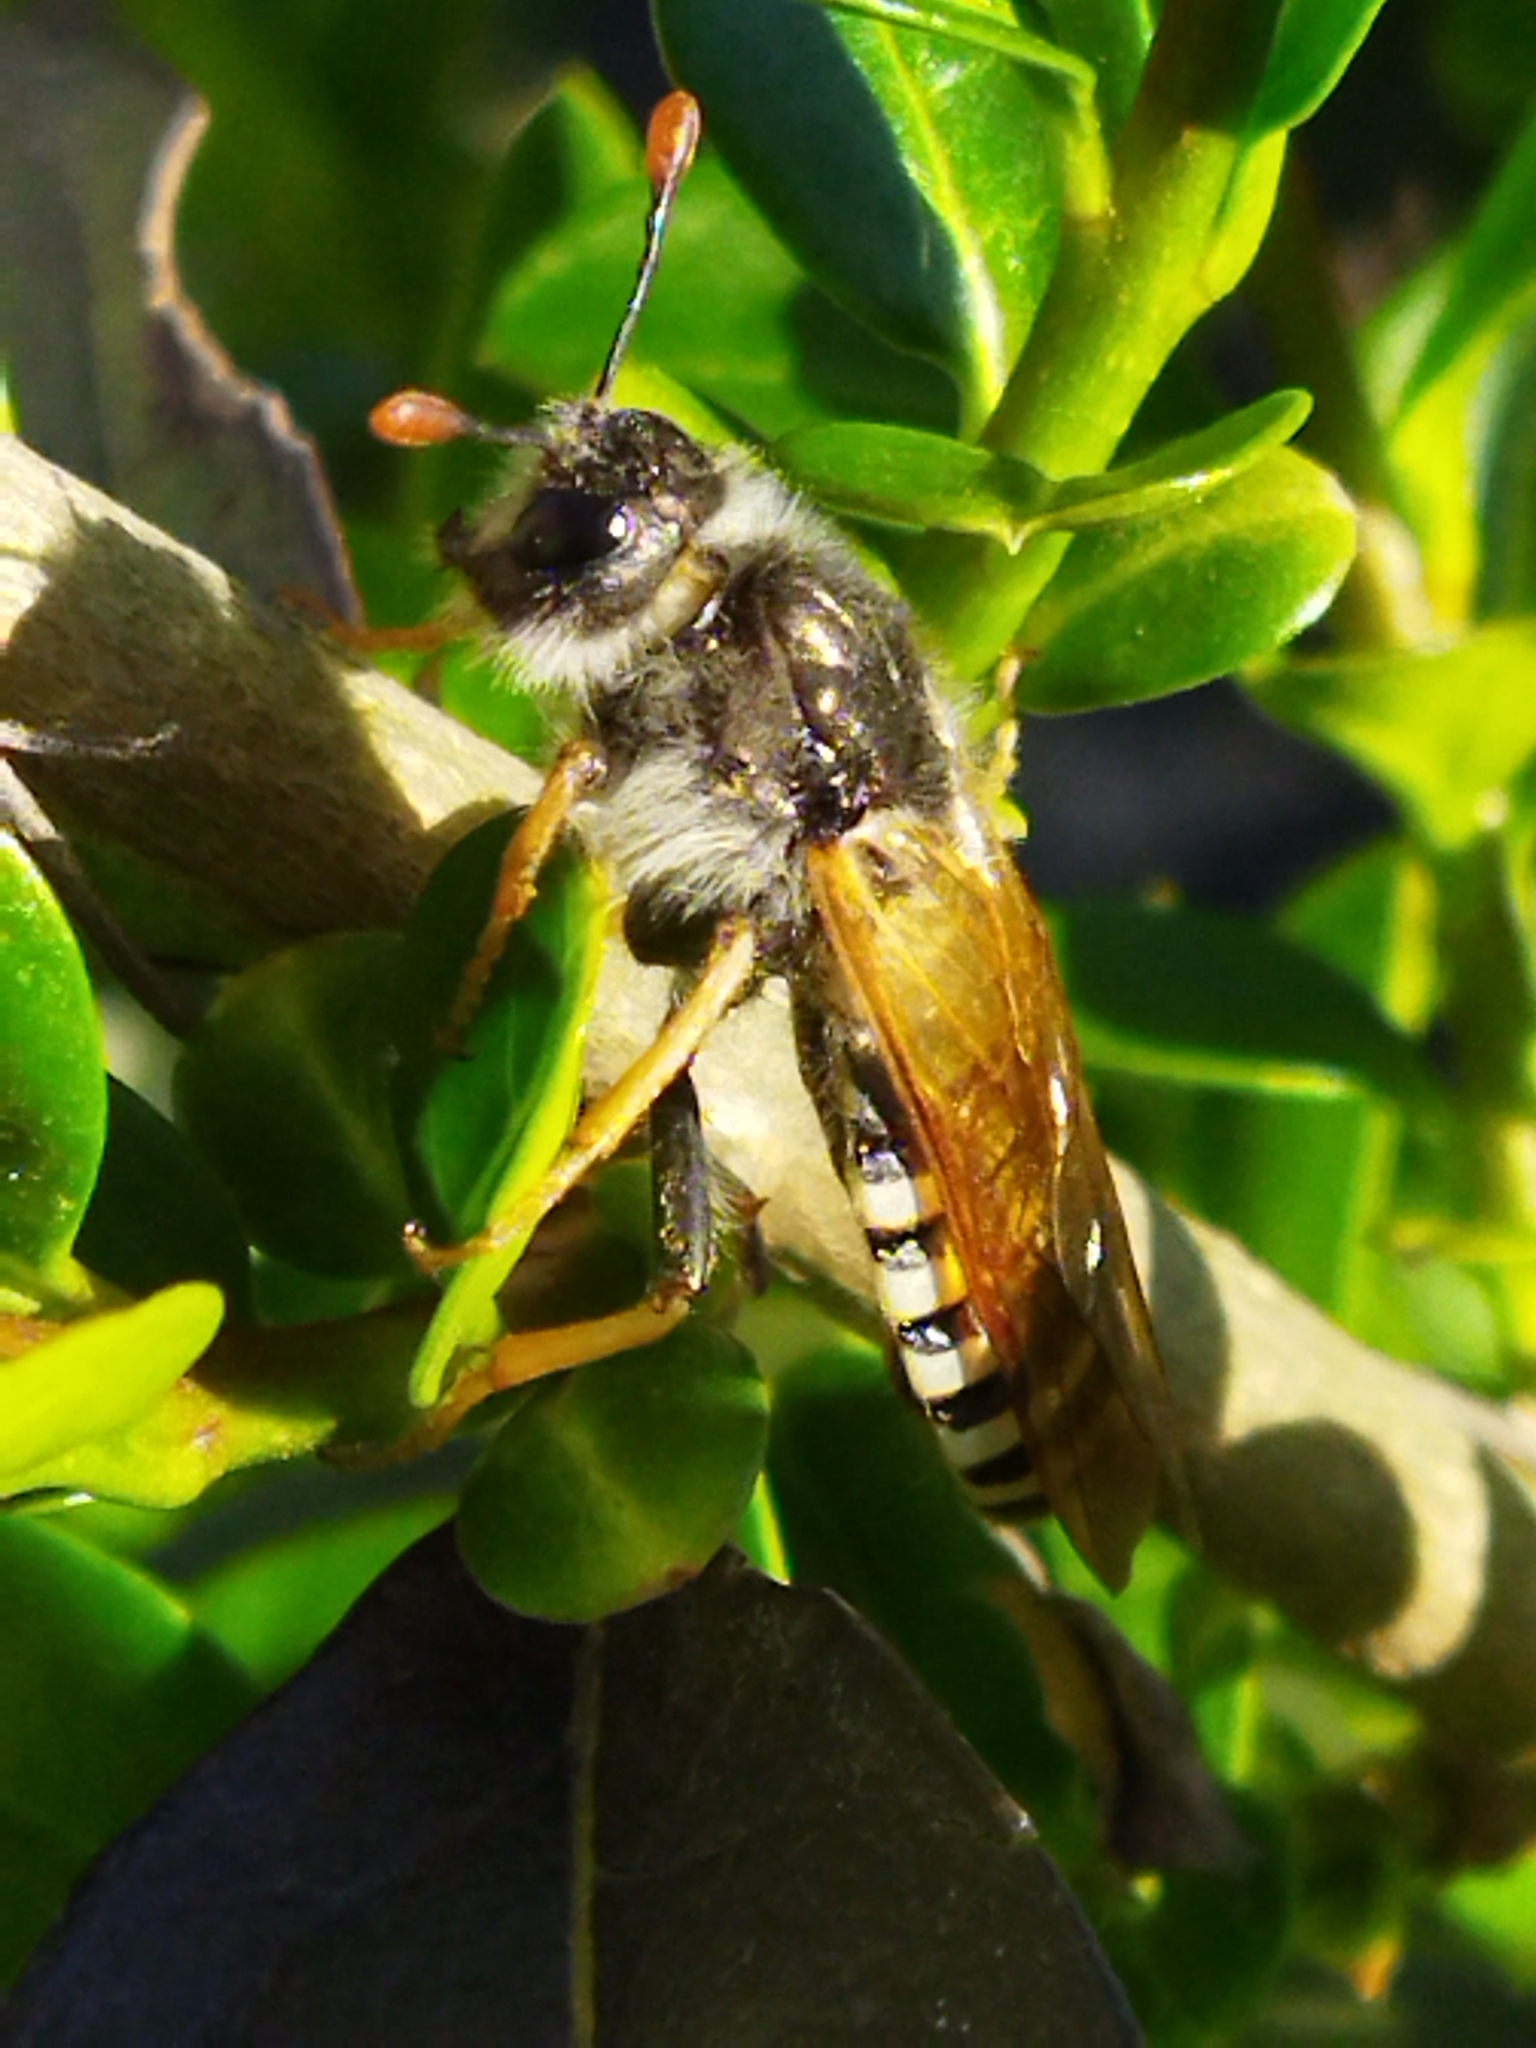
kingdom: Animalia
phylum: Arthropoda
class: Insecta
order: Hymenoptera
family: Cimbicidae
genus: Pseudoclavellaria
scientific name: Pseudoclavellaria amerinae
